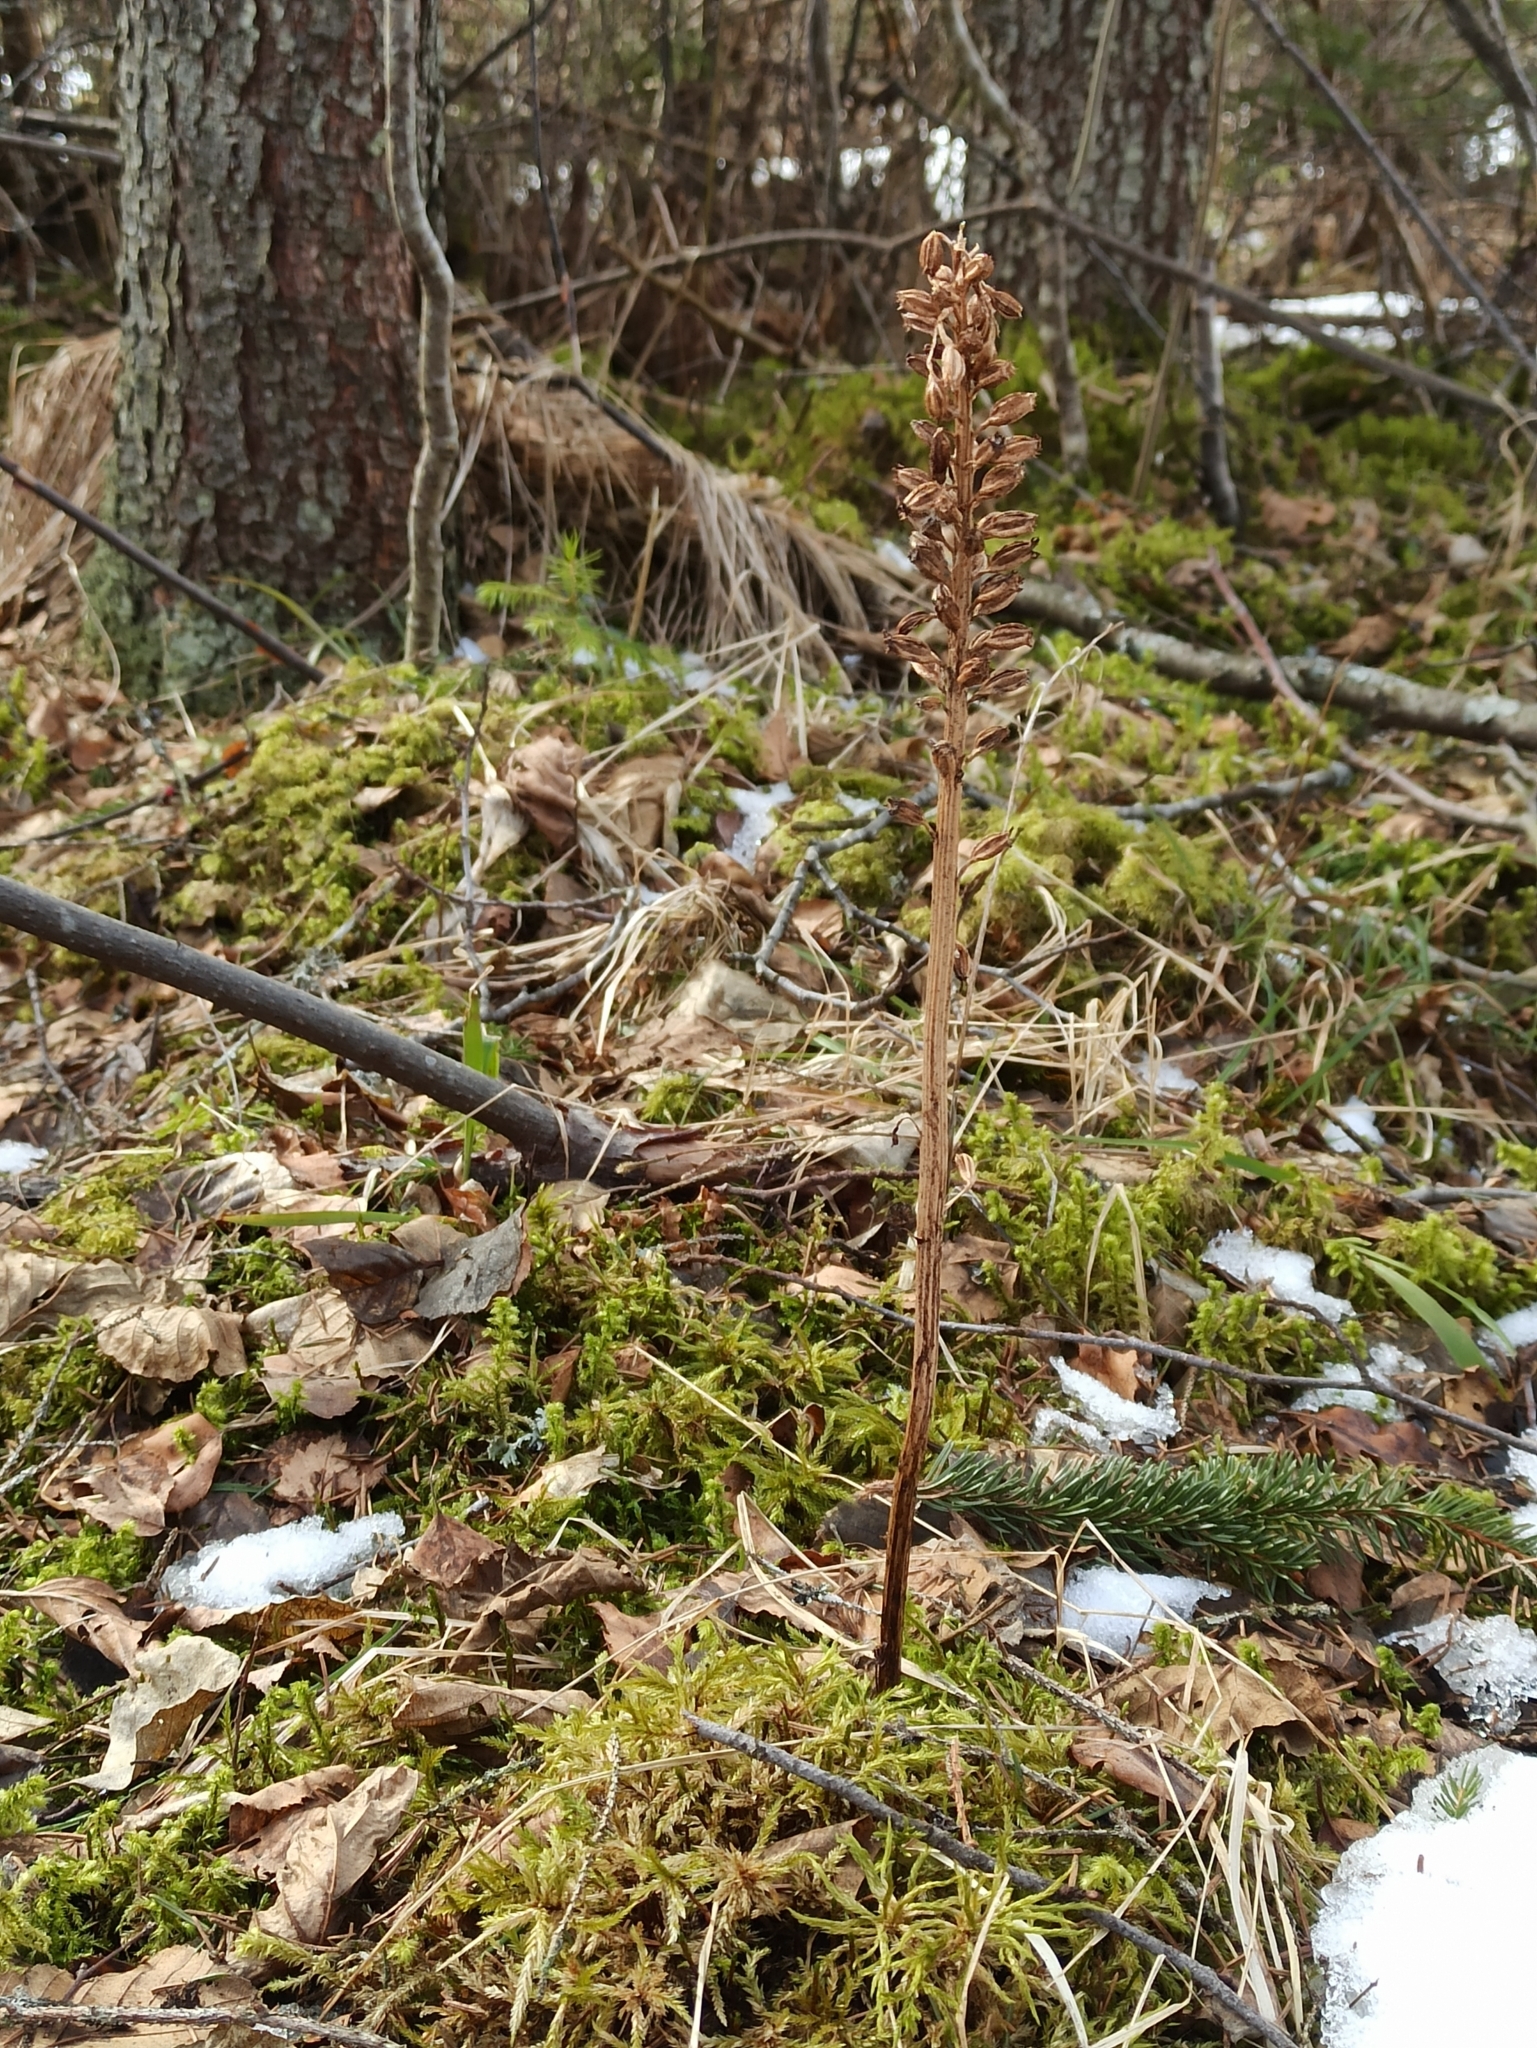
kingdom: Plantae
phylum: Tracheophyta
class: Liliopsida
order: Asparagales
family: Orchidaceae
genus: Neottia
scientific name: Neottia nidus-avis
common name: Bird's-nest orchid
